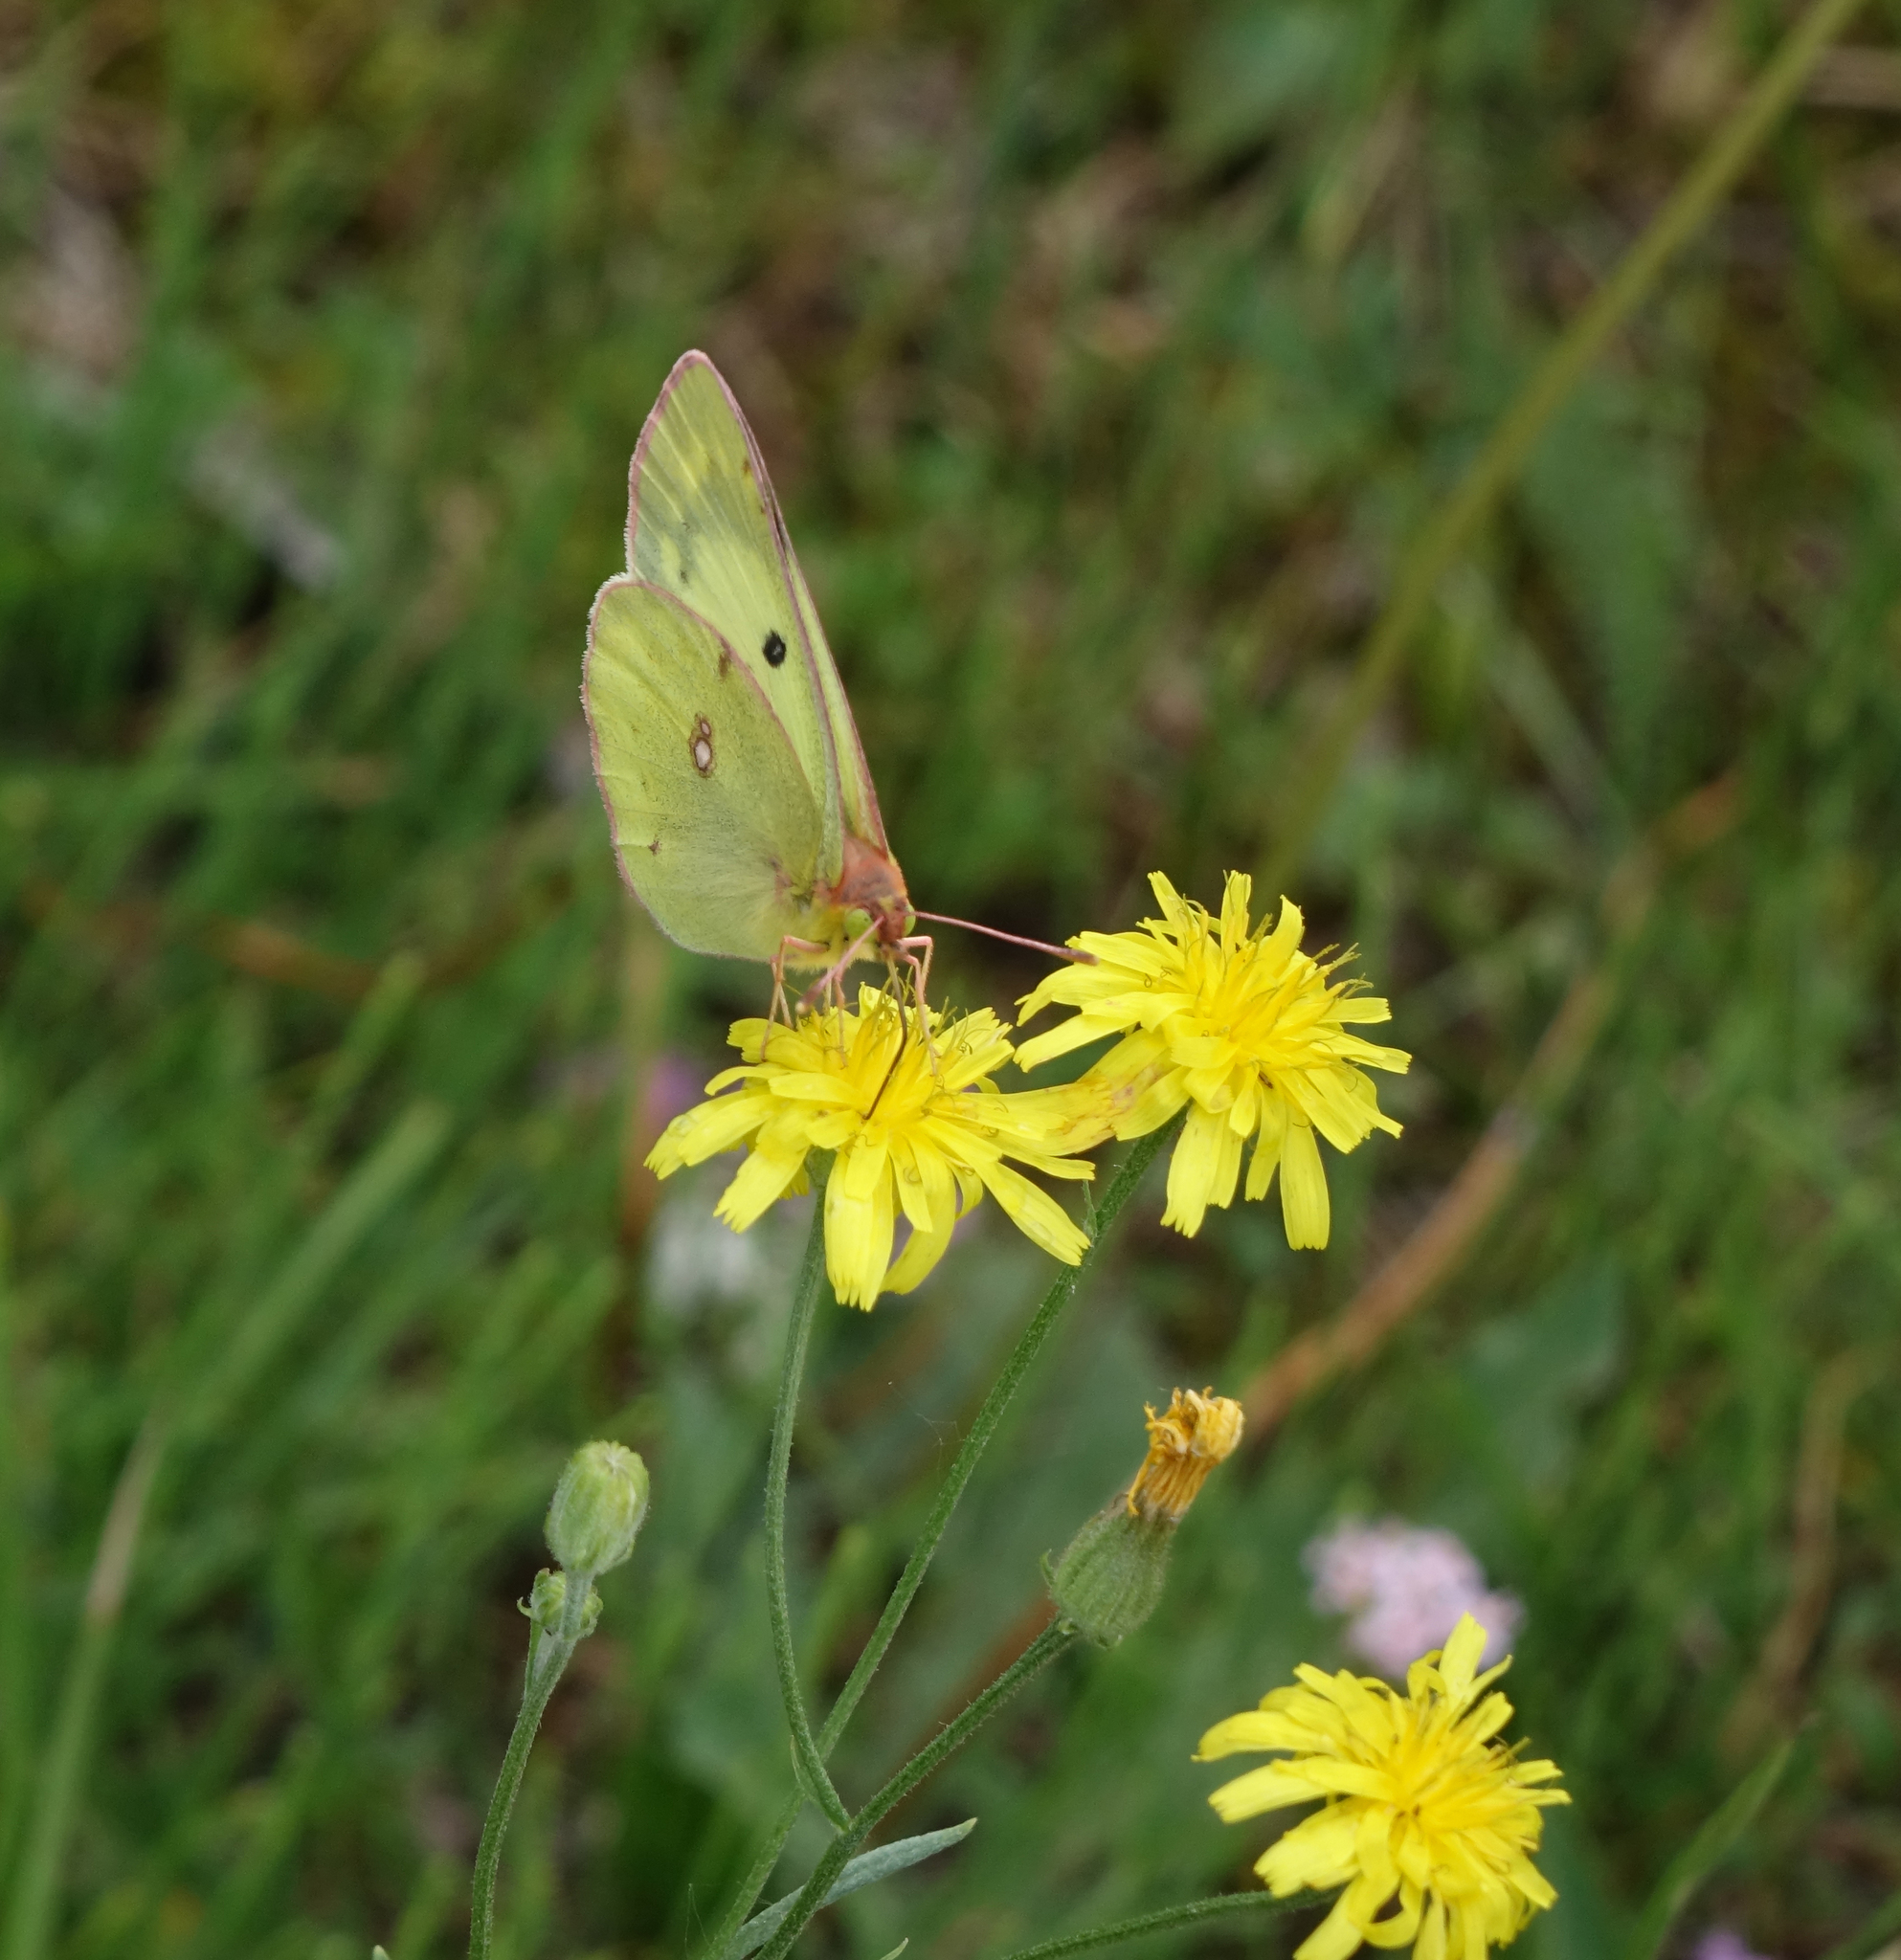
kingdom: Plantae
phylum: Tracheophyta
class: Magnoliopsida
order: Asterales
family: Asteraceae
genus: Crepis
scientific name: Crepis tectorum
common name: Narrow-leaved hawk's-beard
